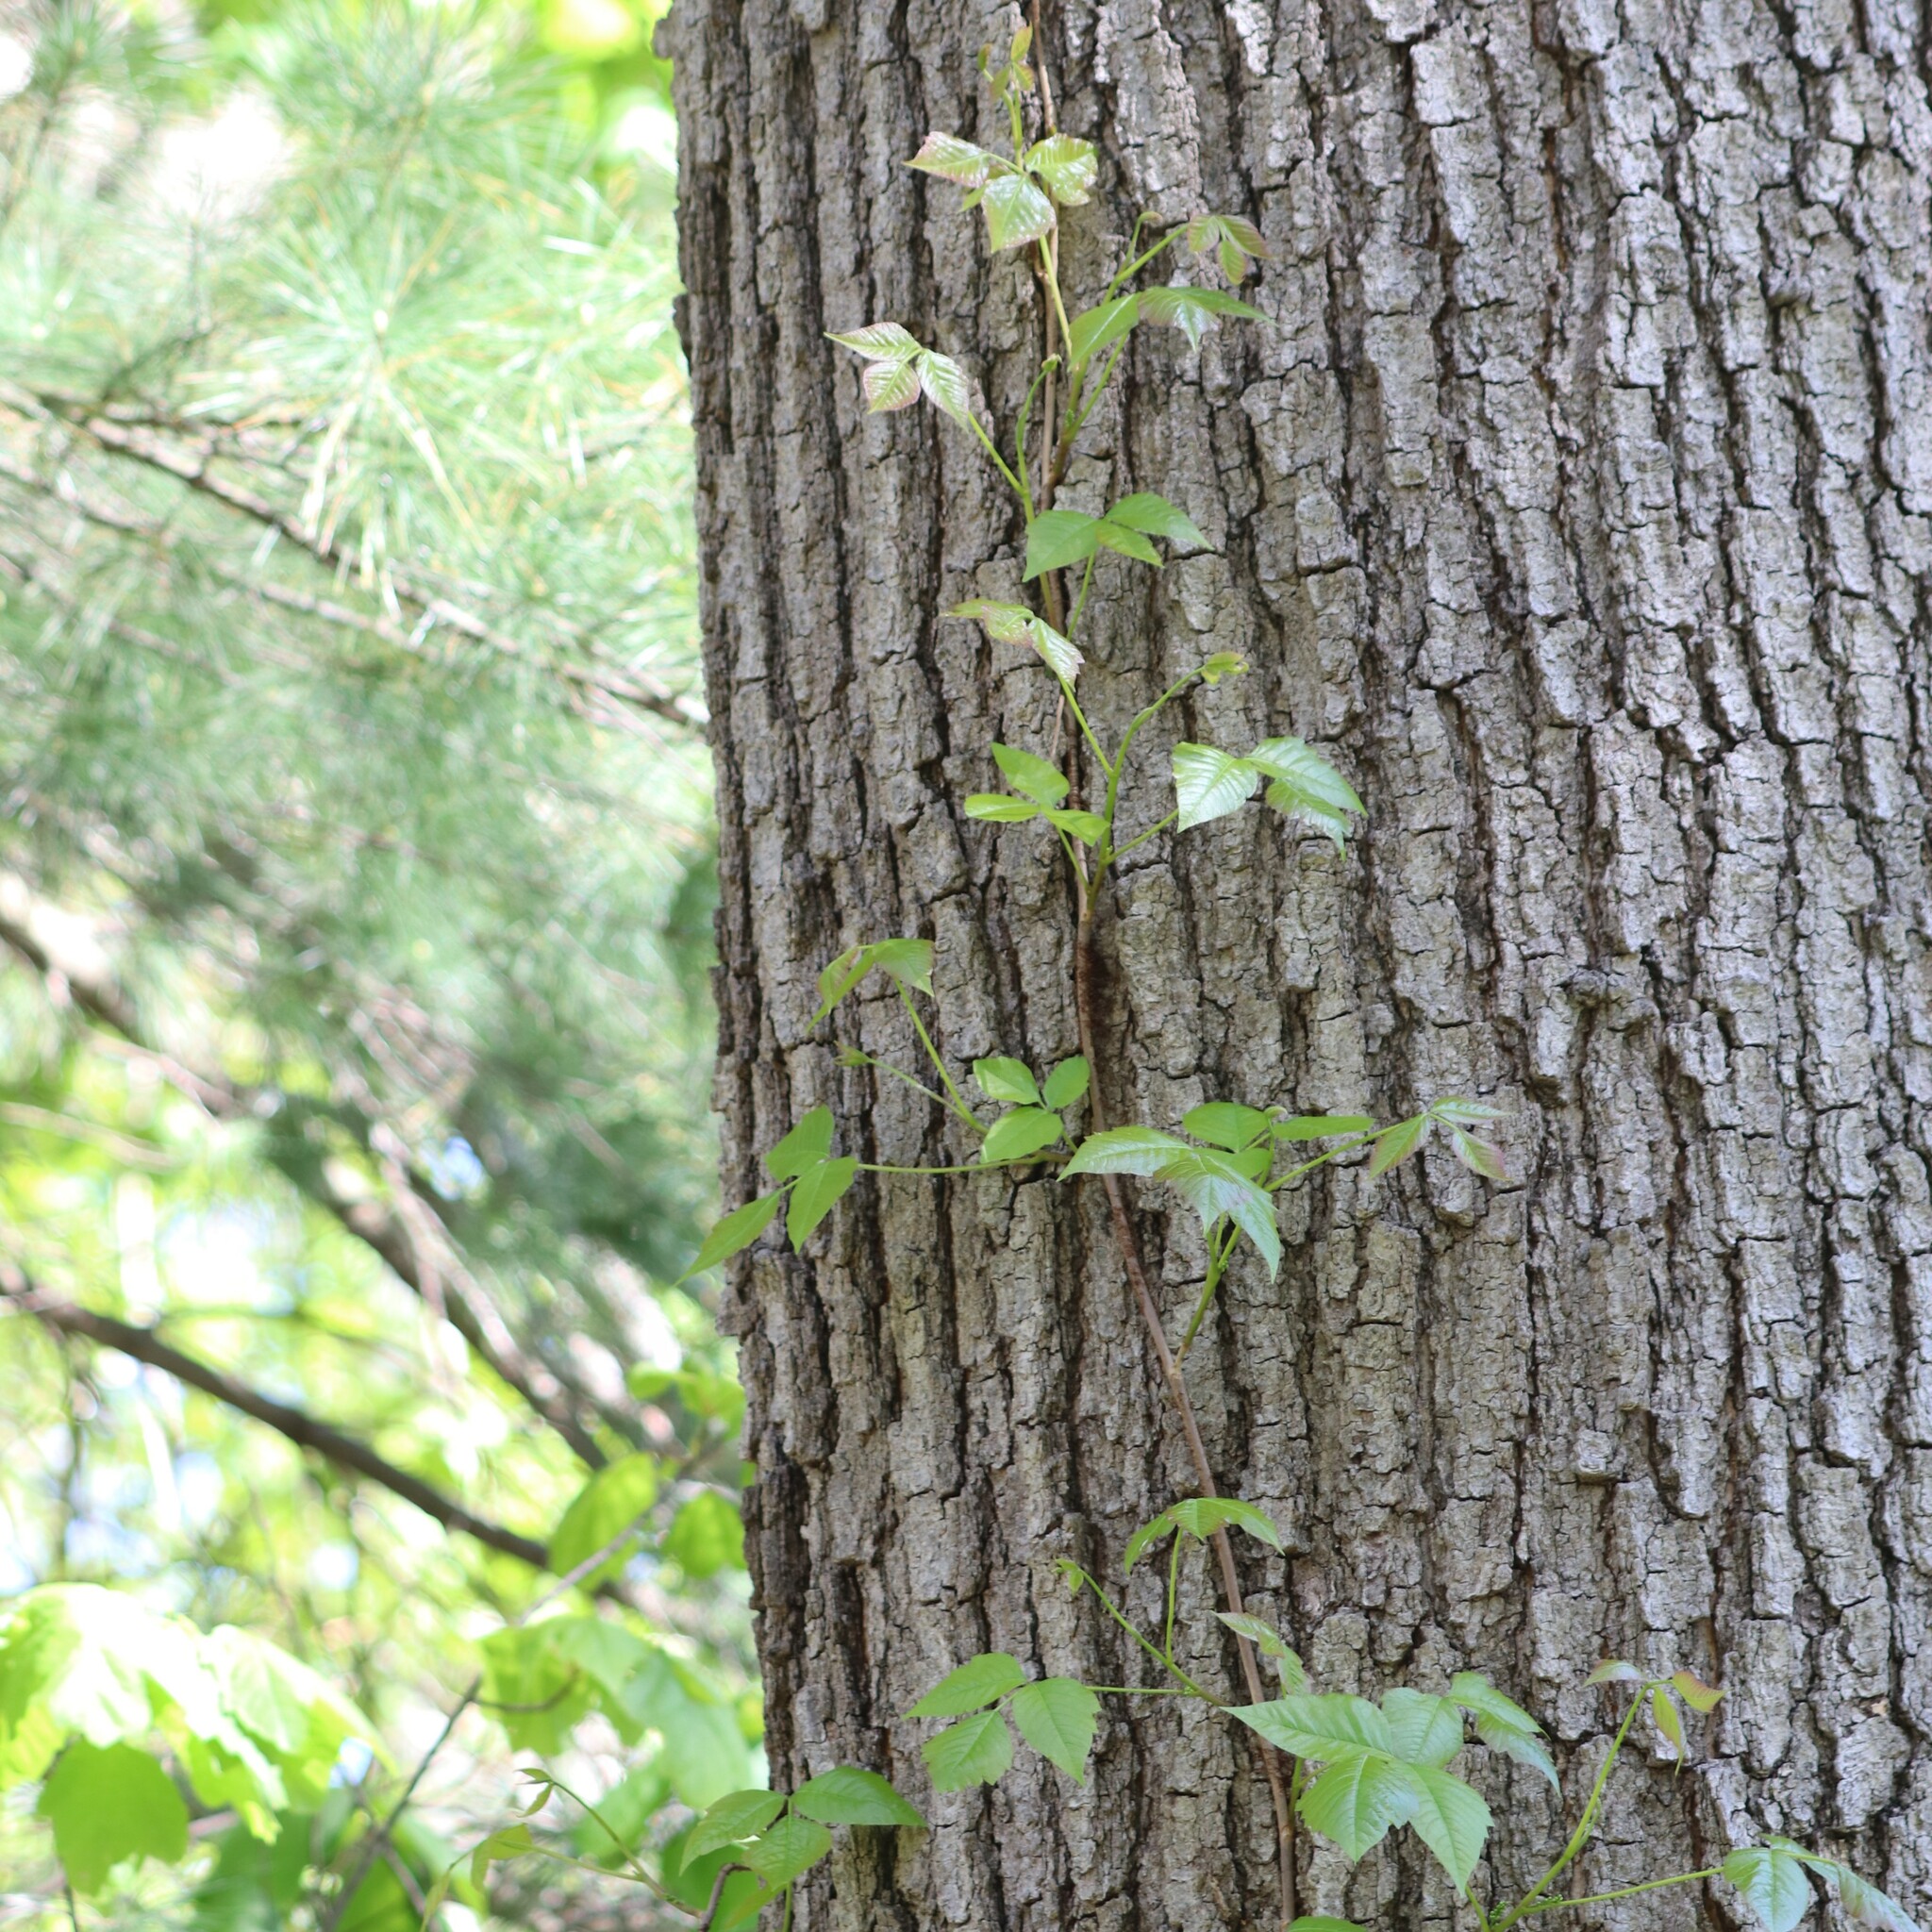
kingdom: Plantae
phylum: Tracheophyta
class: Magnoliopsida
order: Sapindales
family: Anacardiaceae
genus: Toxicodendron
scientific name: Toxicodendron radicans
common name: Poison ivy
